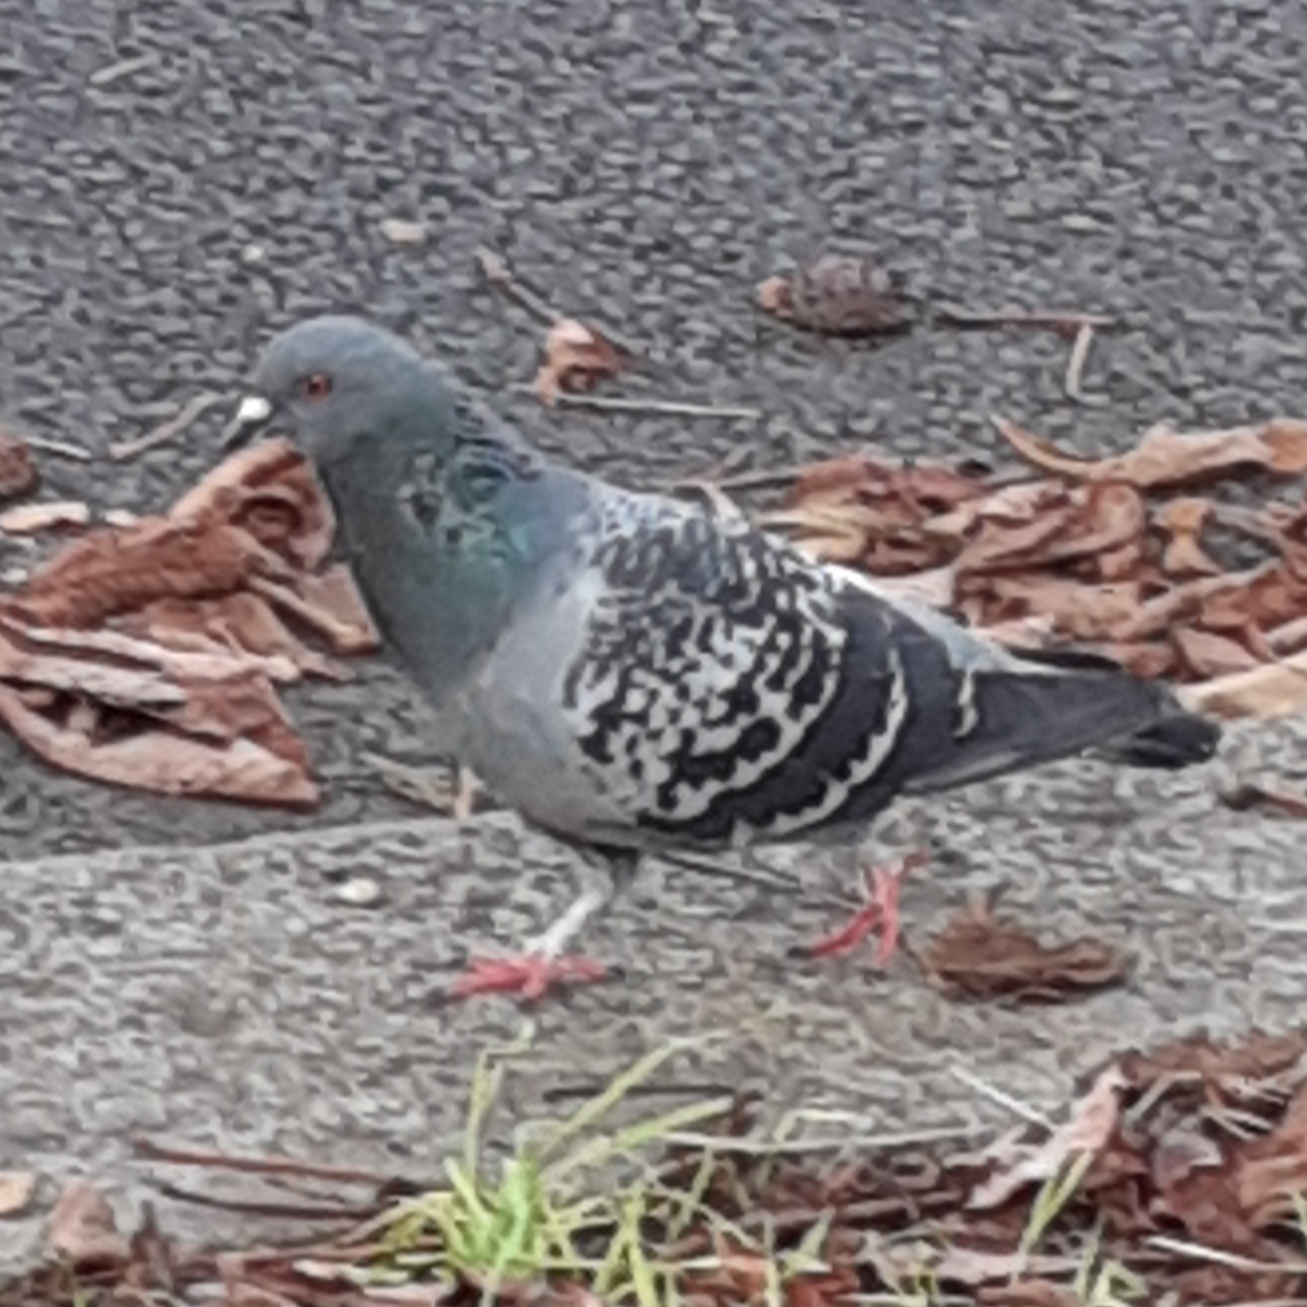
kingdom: Animalia
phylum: Chordata
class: Aves
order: Columbiformes
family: Columbidae
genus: Columba
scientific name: Columba livia
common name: Rock pigeon
